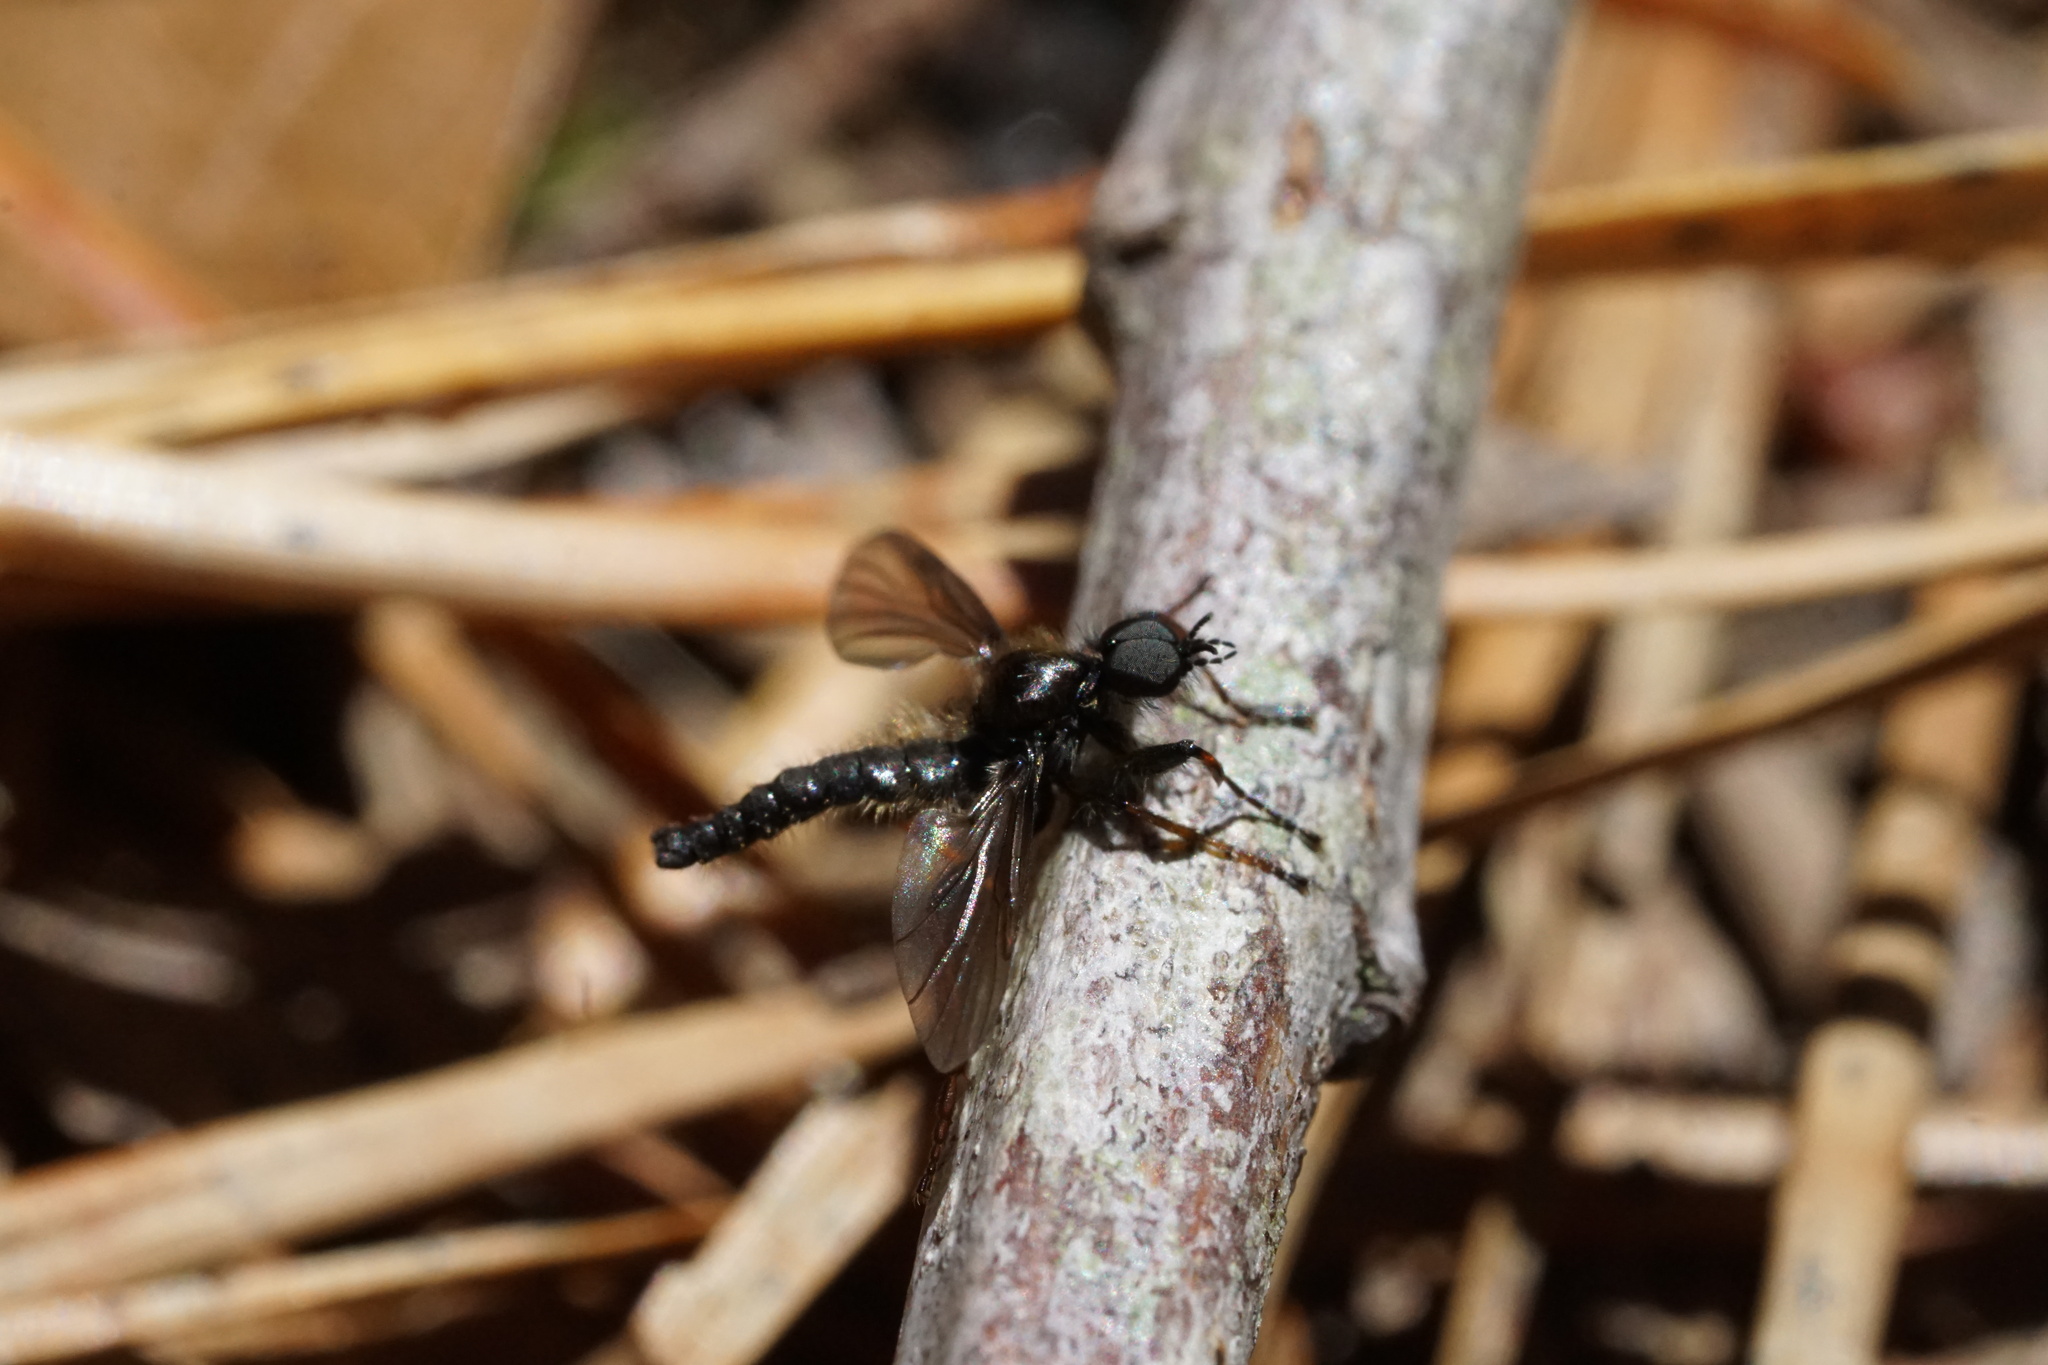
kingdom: Animalia
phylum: Arthropoda
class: Insecta
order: Diptera
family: Bibionidae
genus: Bibio
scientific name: Bibio lanigerus
